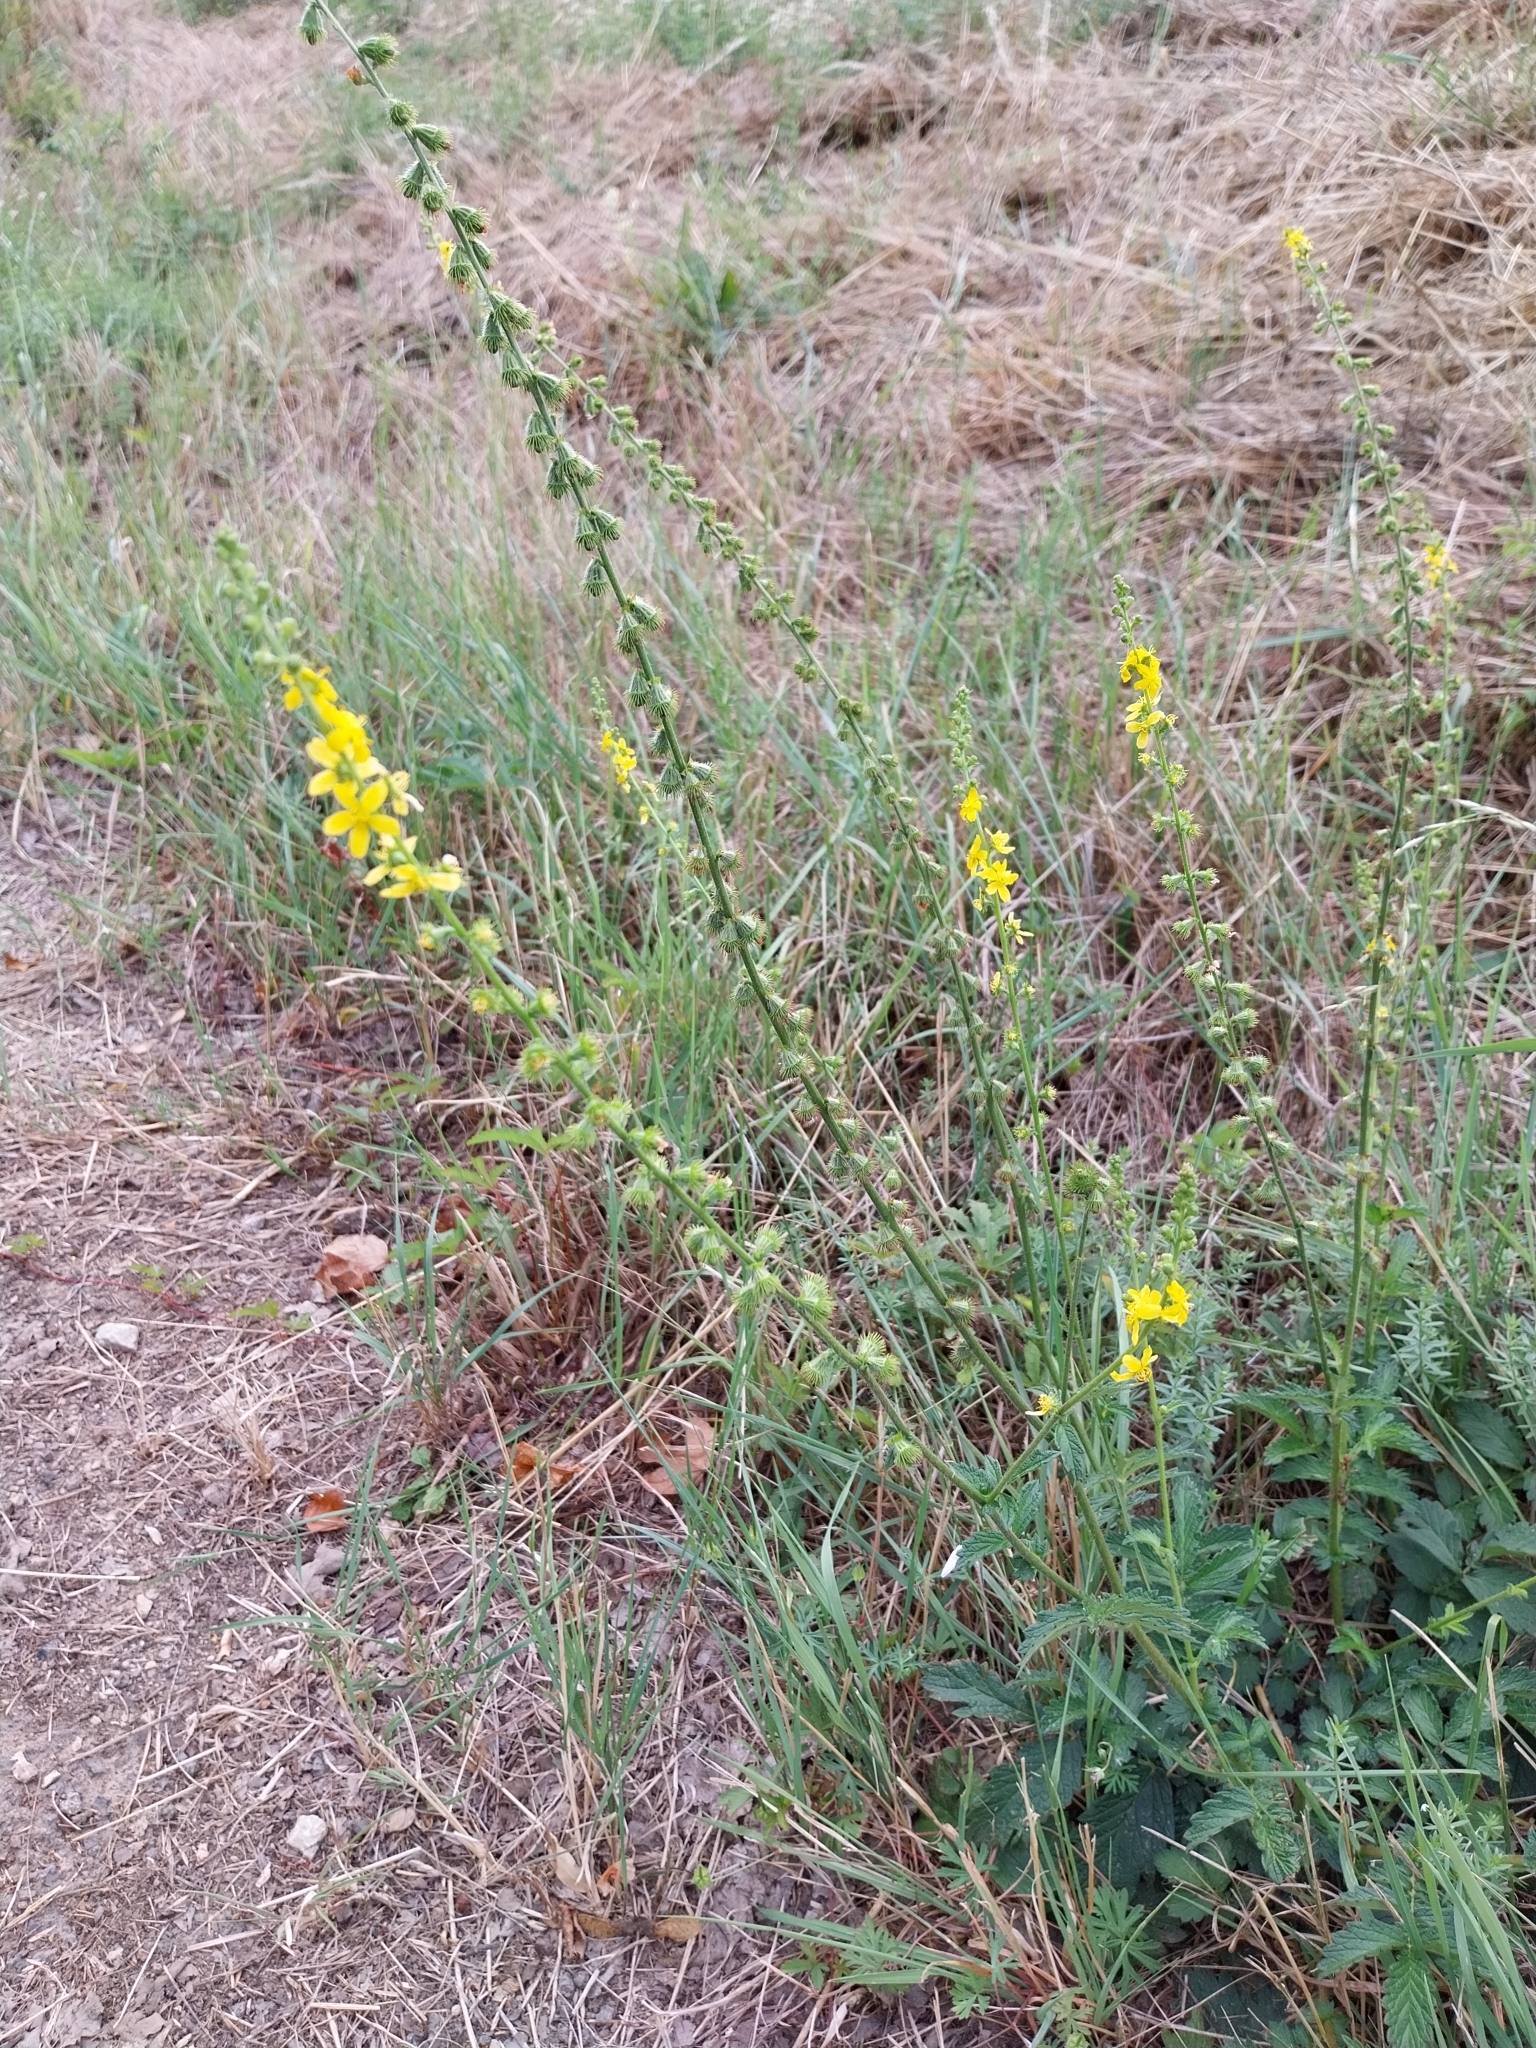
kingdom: Plantae
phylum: Tracheophyta
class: Magnoliopsida
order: Rosales
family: Rosaceae
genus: Agrimonia
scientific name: Agrimonia eupatoria
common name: Agrimony
